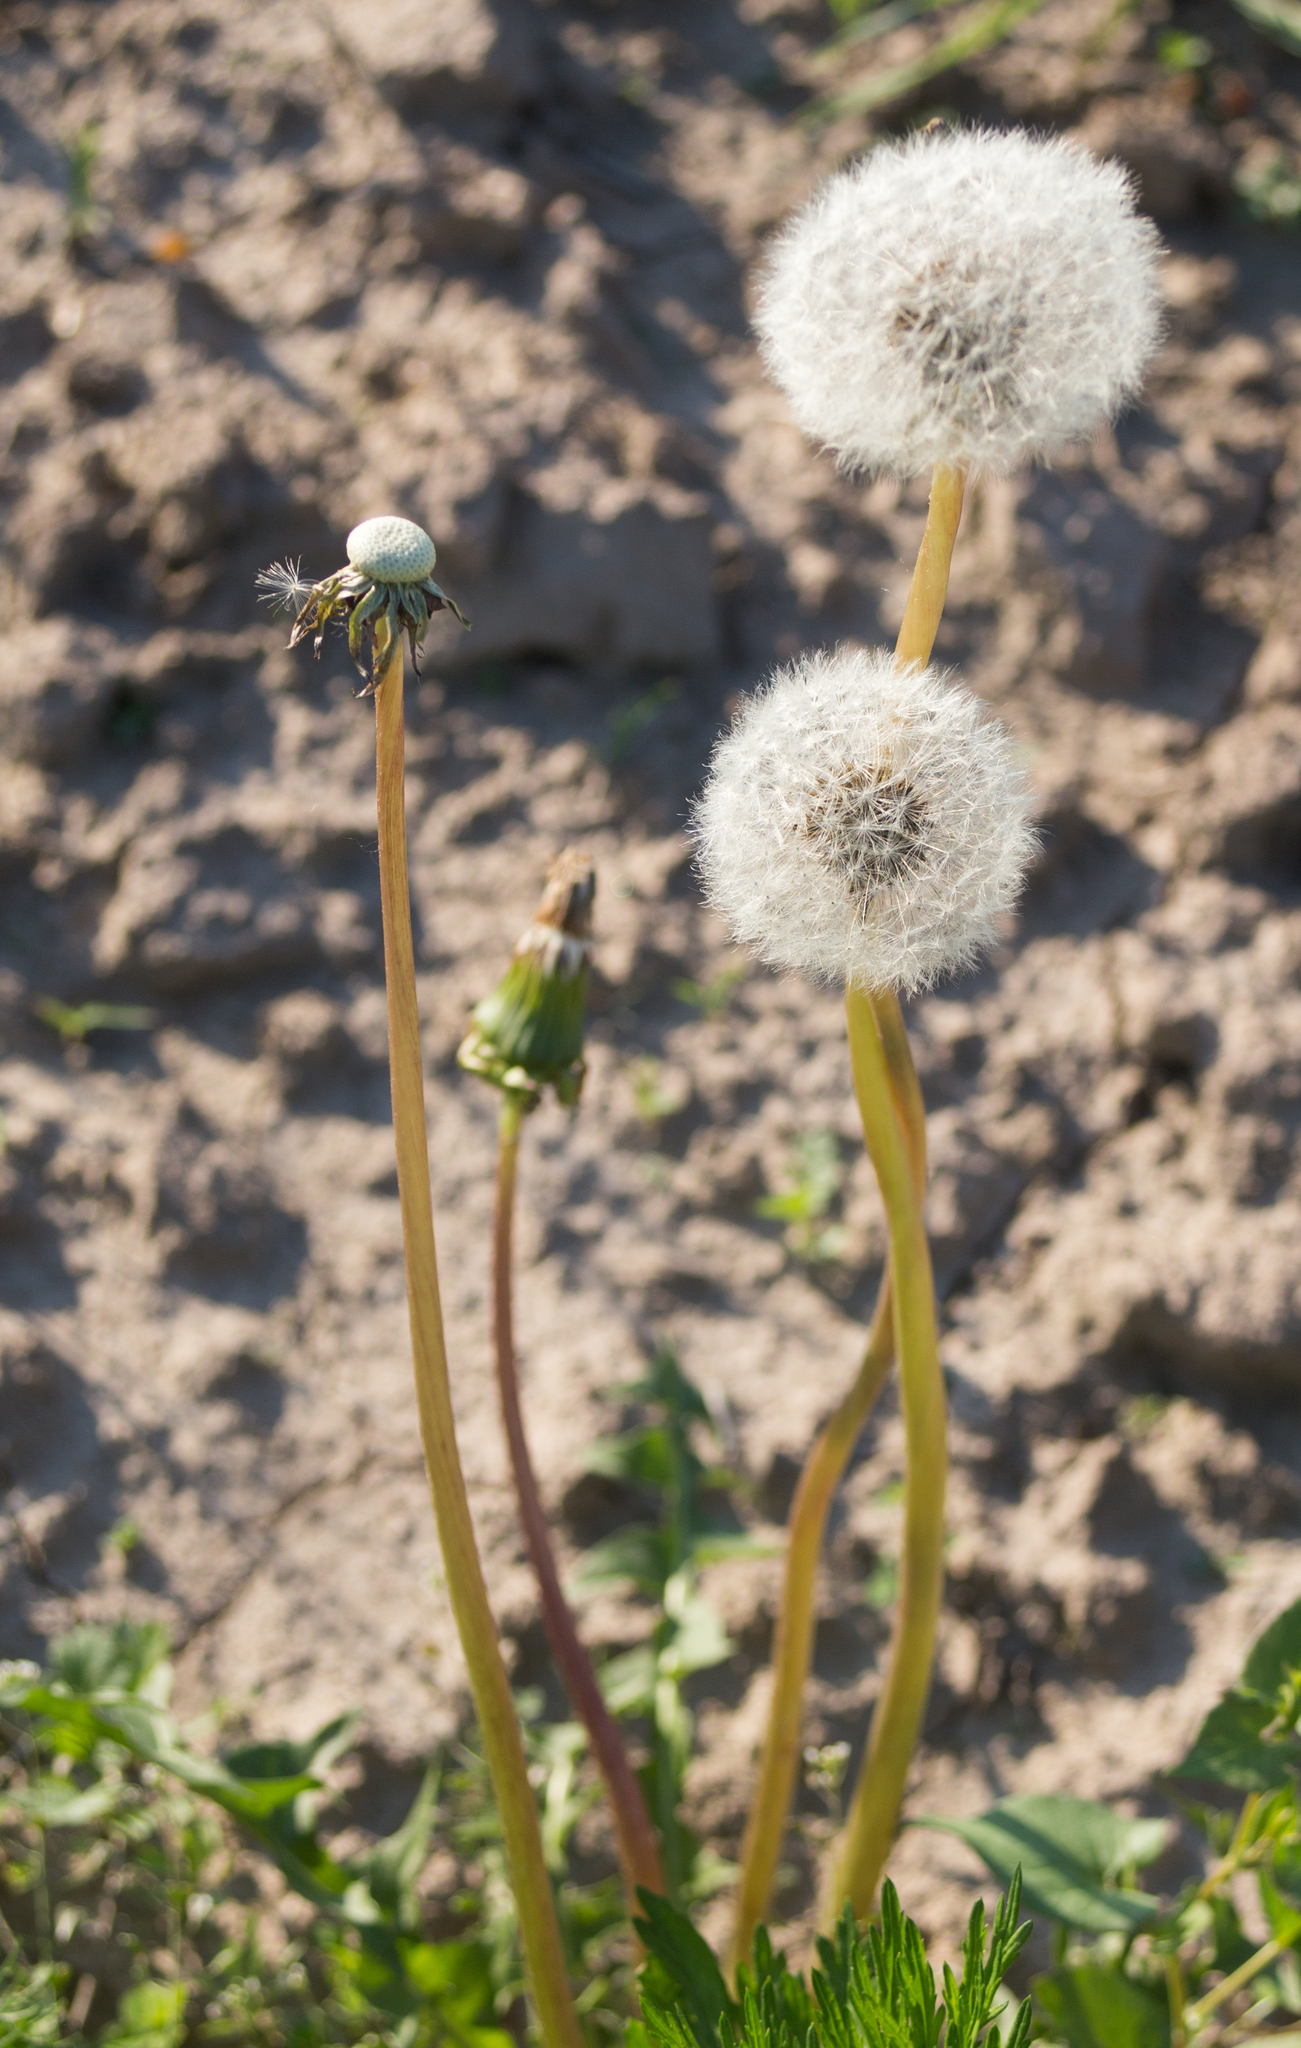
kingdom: Plantae
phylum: Tracheophyta
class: Magnoliopsida
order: Asterales
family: Asteraceae
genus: Taraxacum
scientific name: Taraxacum officinale
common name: Common dandelion
